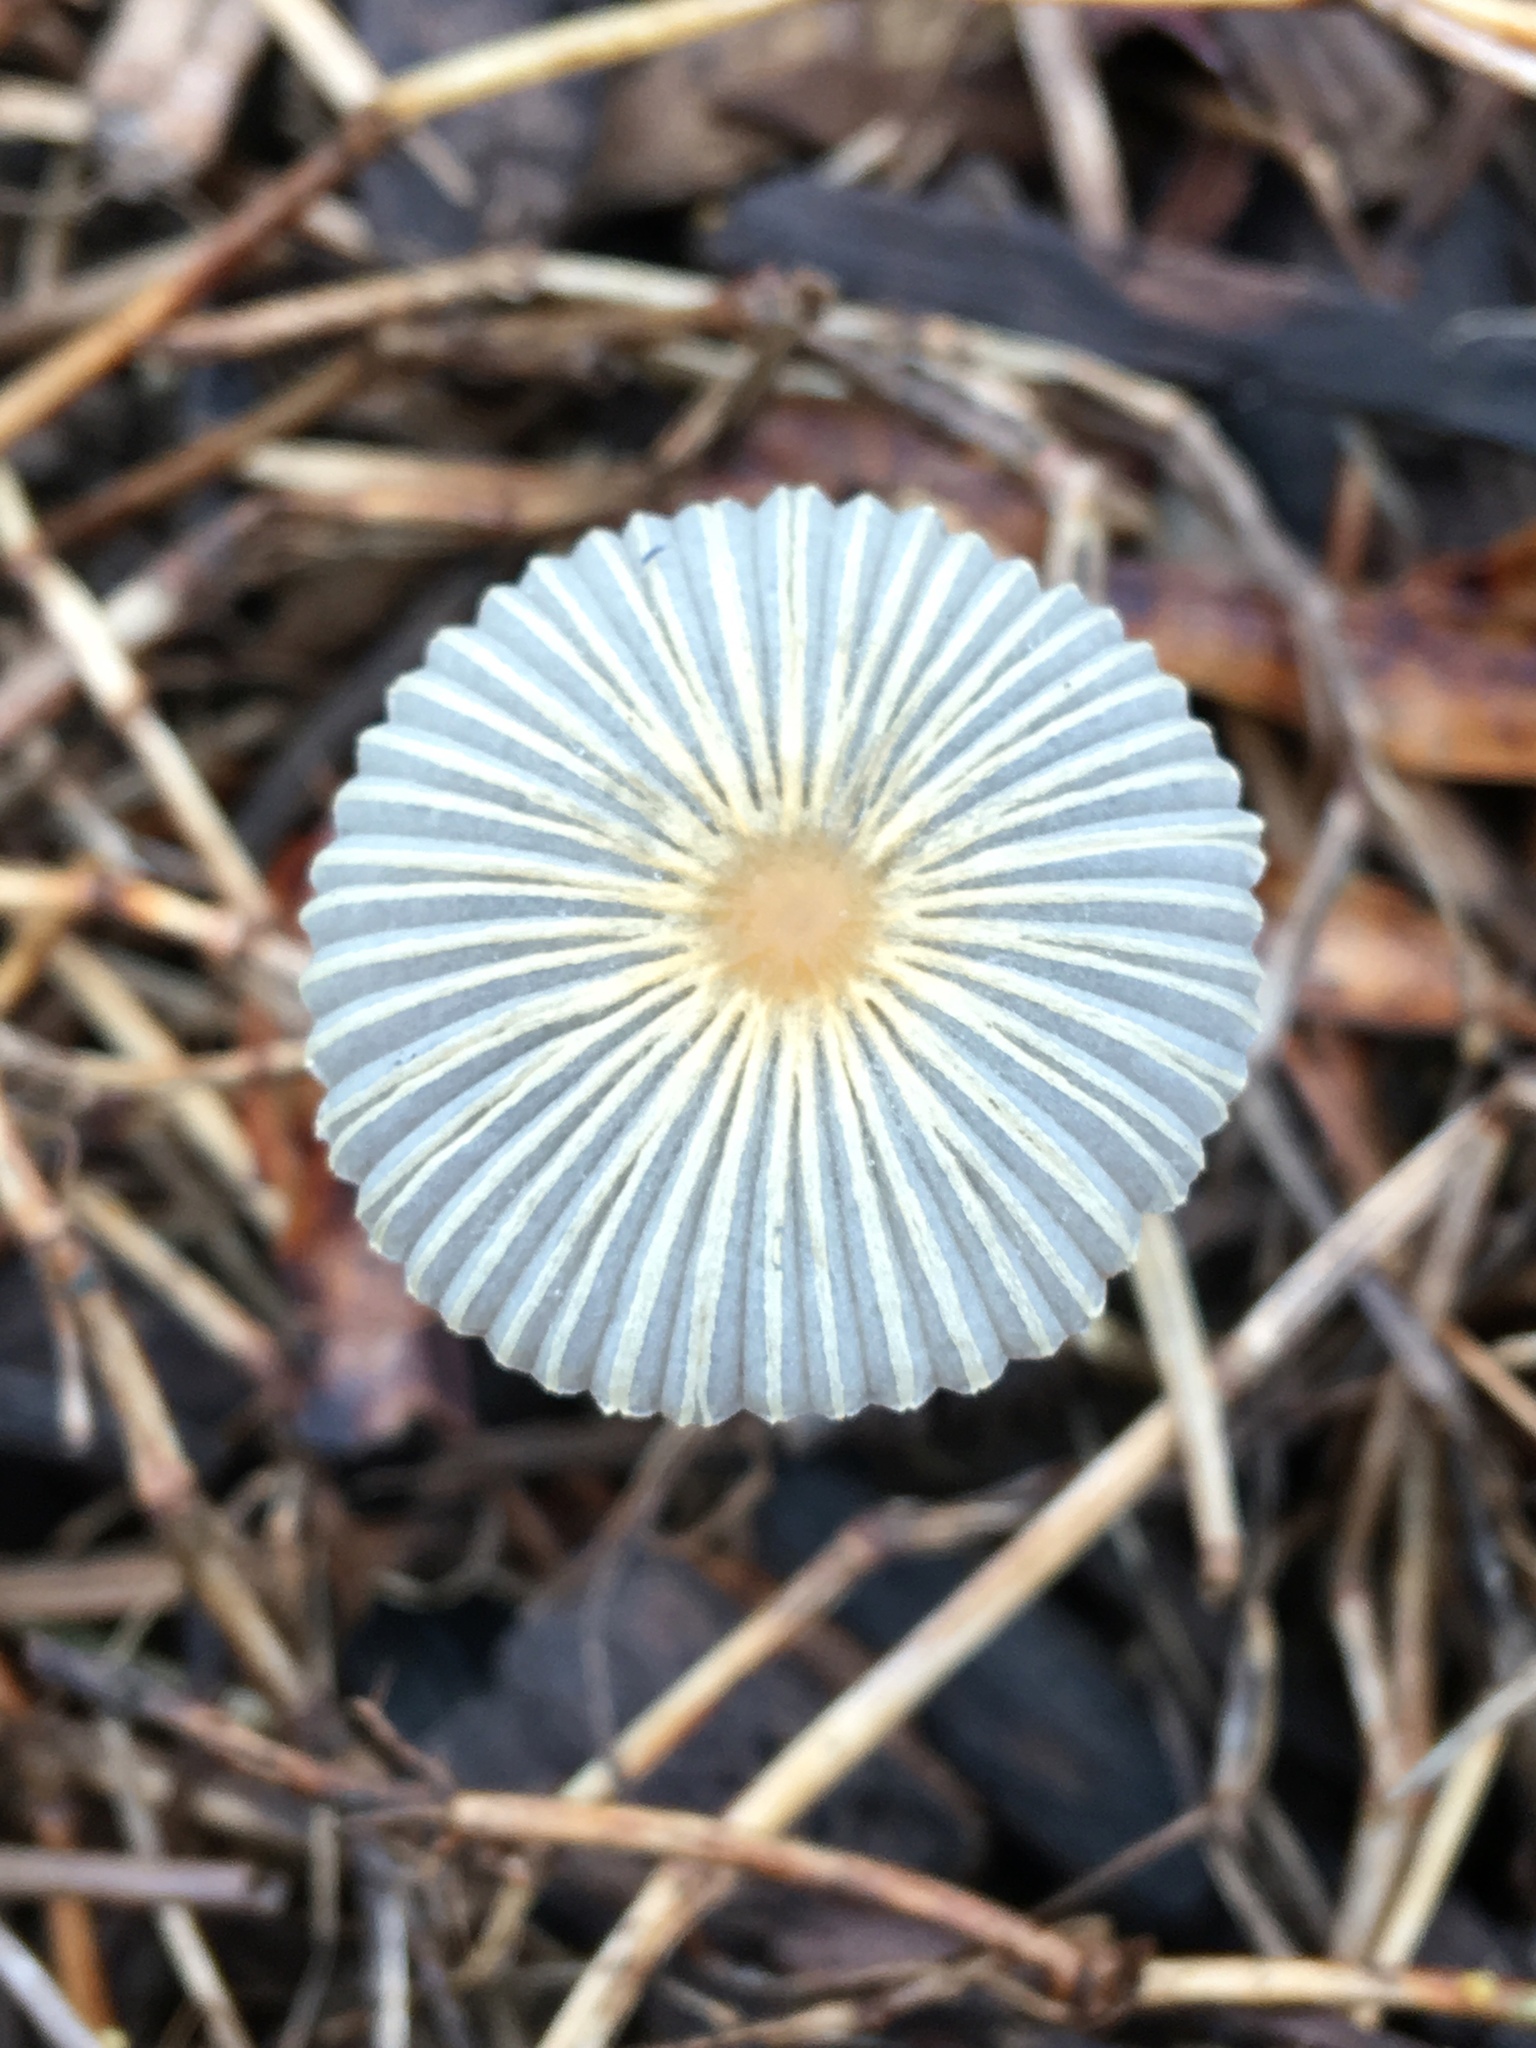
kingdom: Fungi
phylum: Basidiomycota
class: Agaricomycetes
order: Agaricales
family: Psathyrellaceae
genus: Parasola
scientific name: Parasola plicatilis
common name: Pleated inkcap
